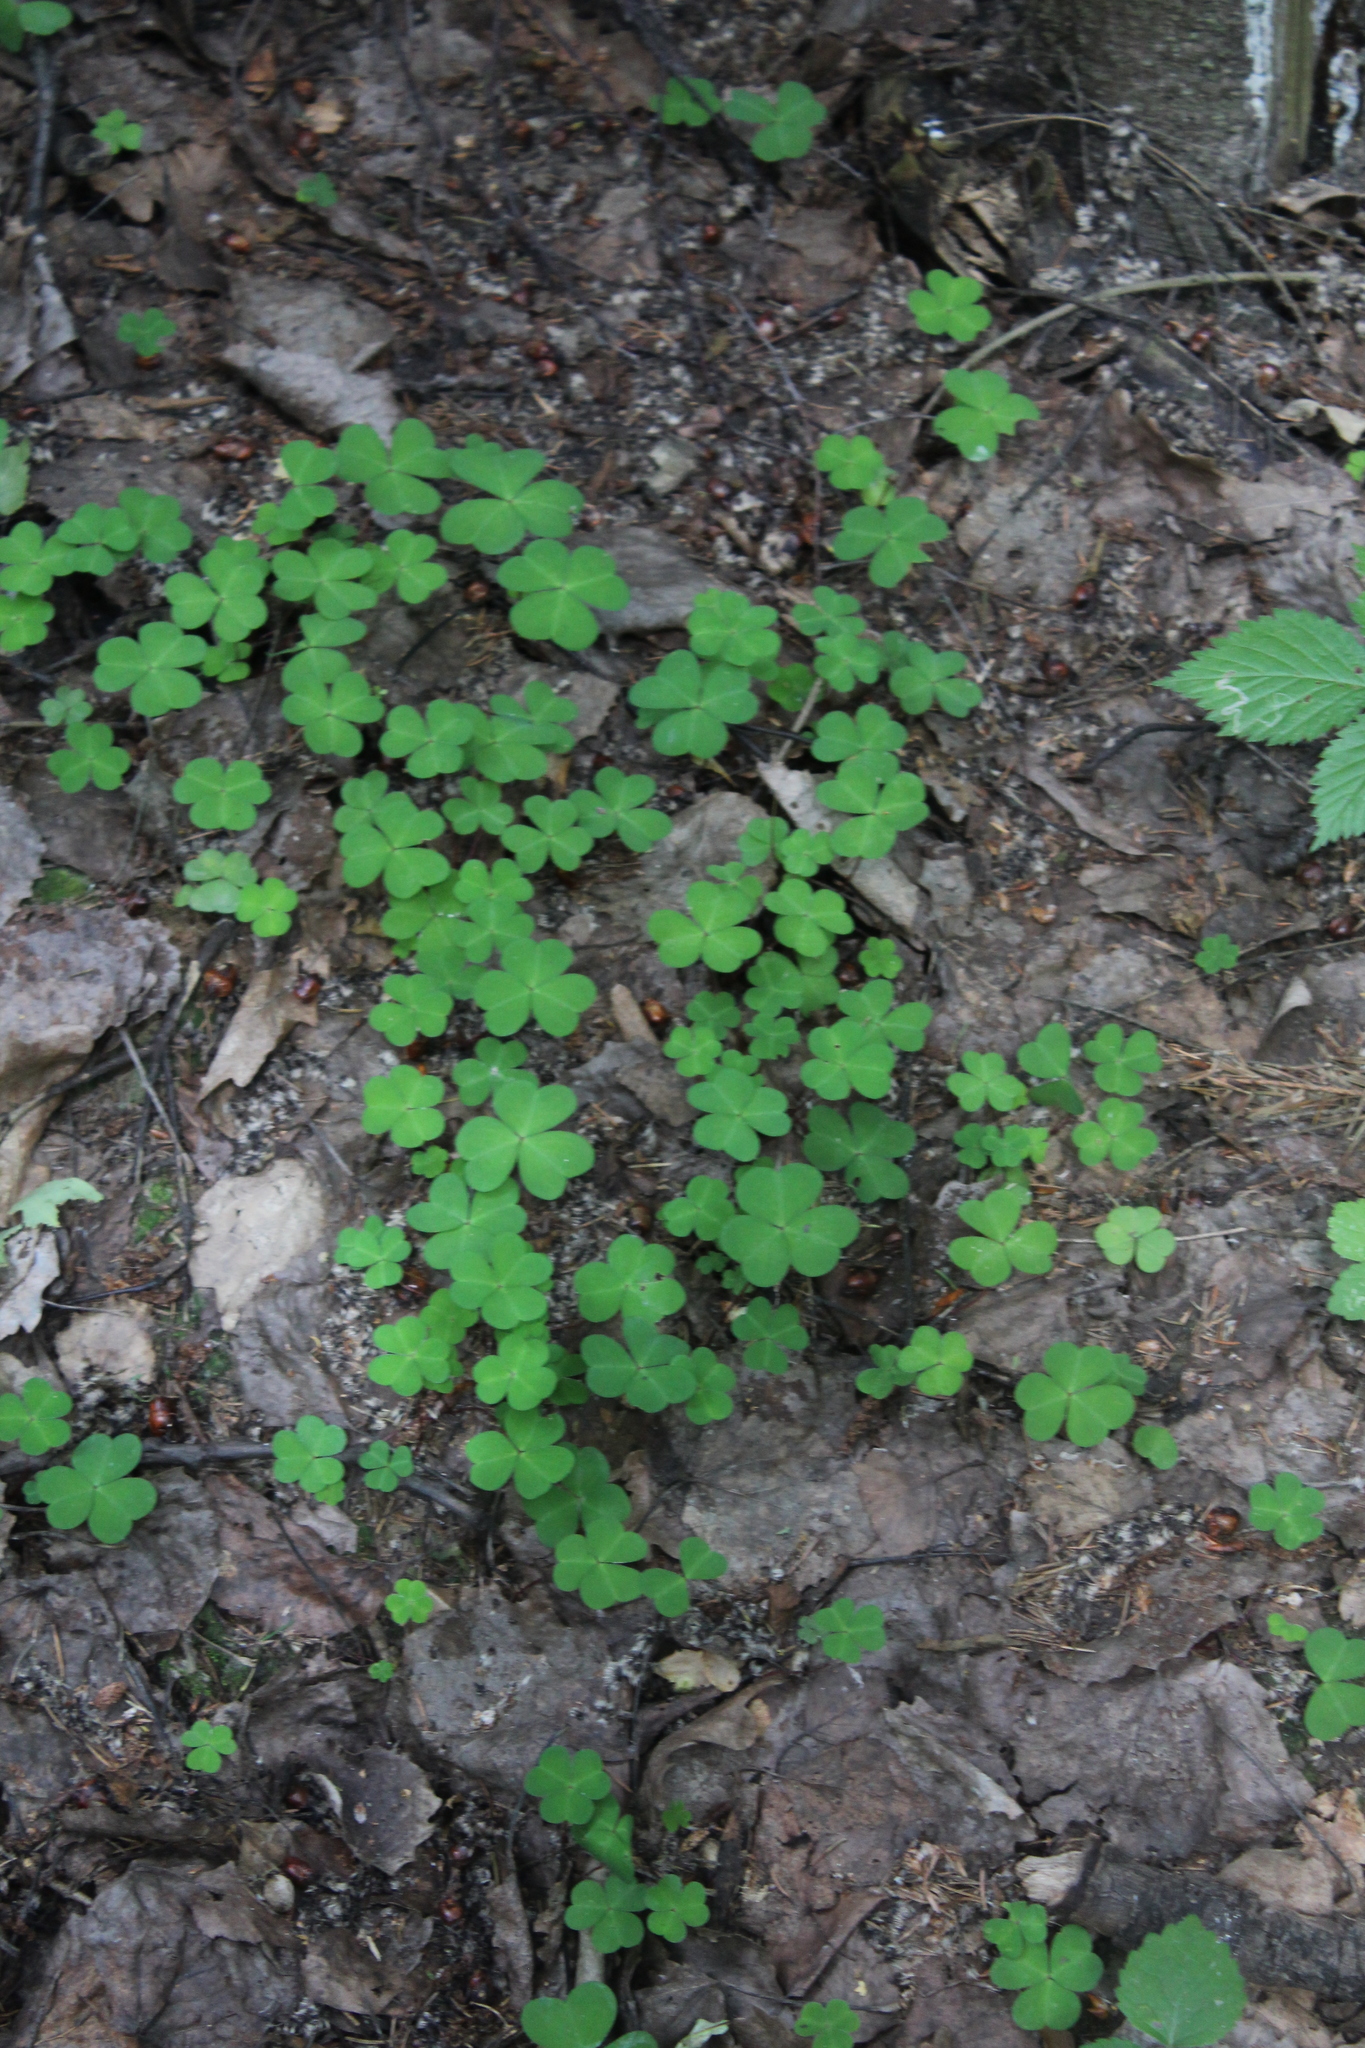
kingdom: Plantae
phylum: Tracheophyta
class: Magnoliopsida
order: Oxalidales
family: Oxalidaceae
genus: Oxalis
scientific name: Oxalis acetosella
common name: Wood-sorrel
